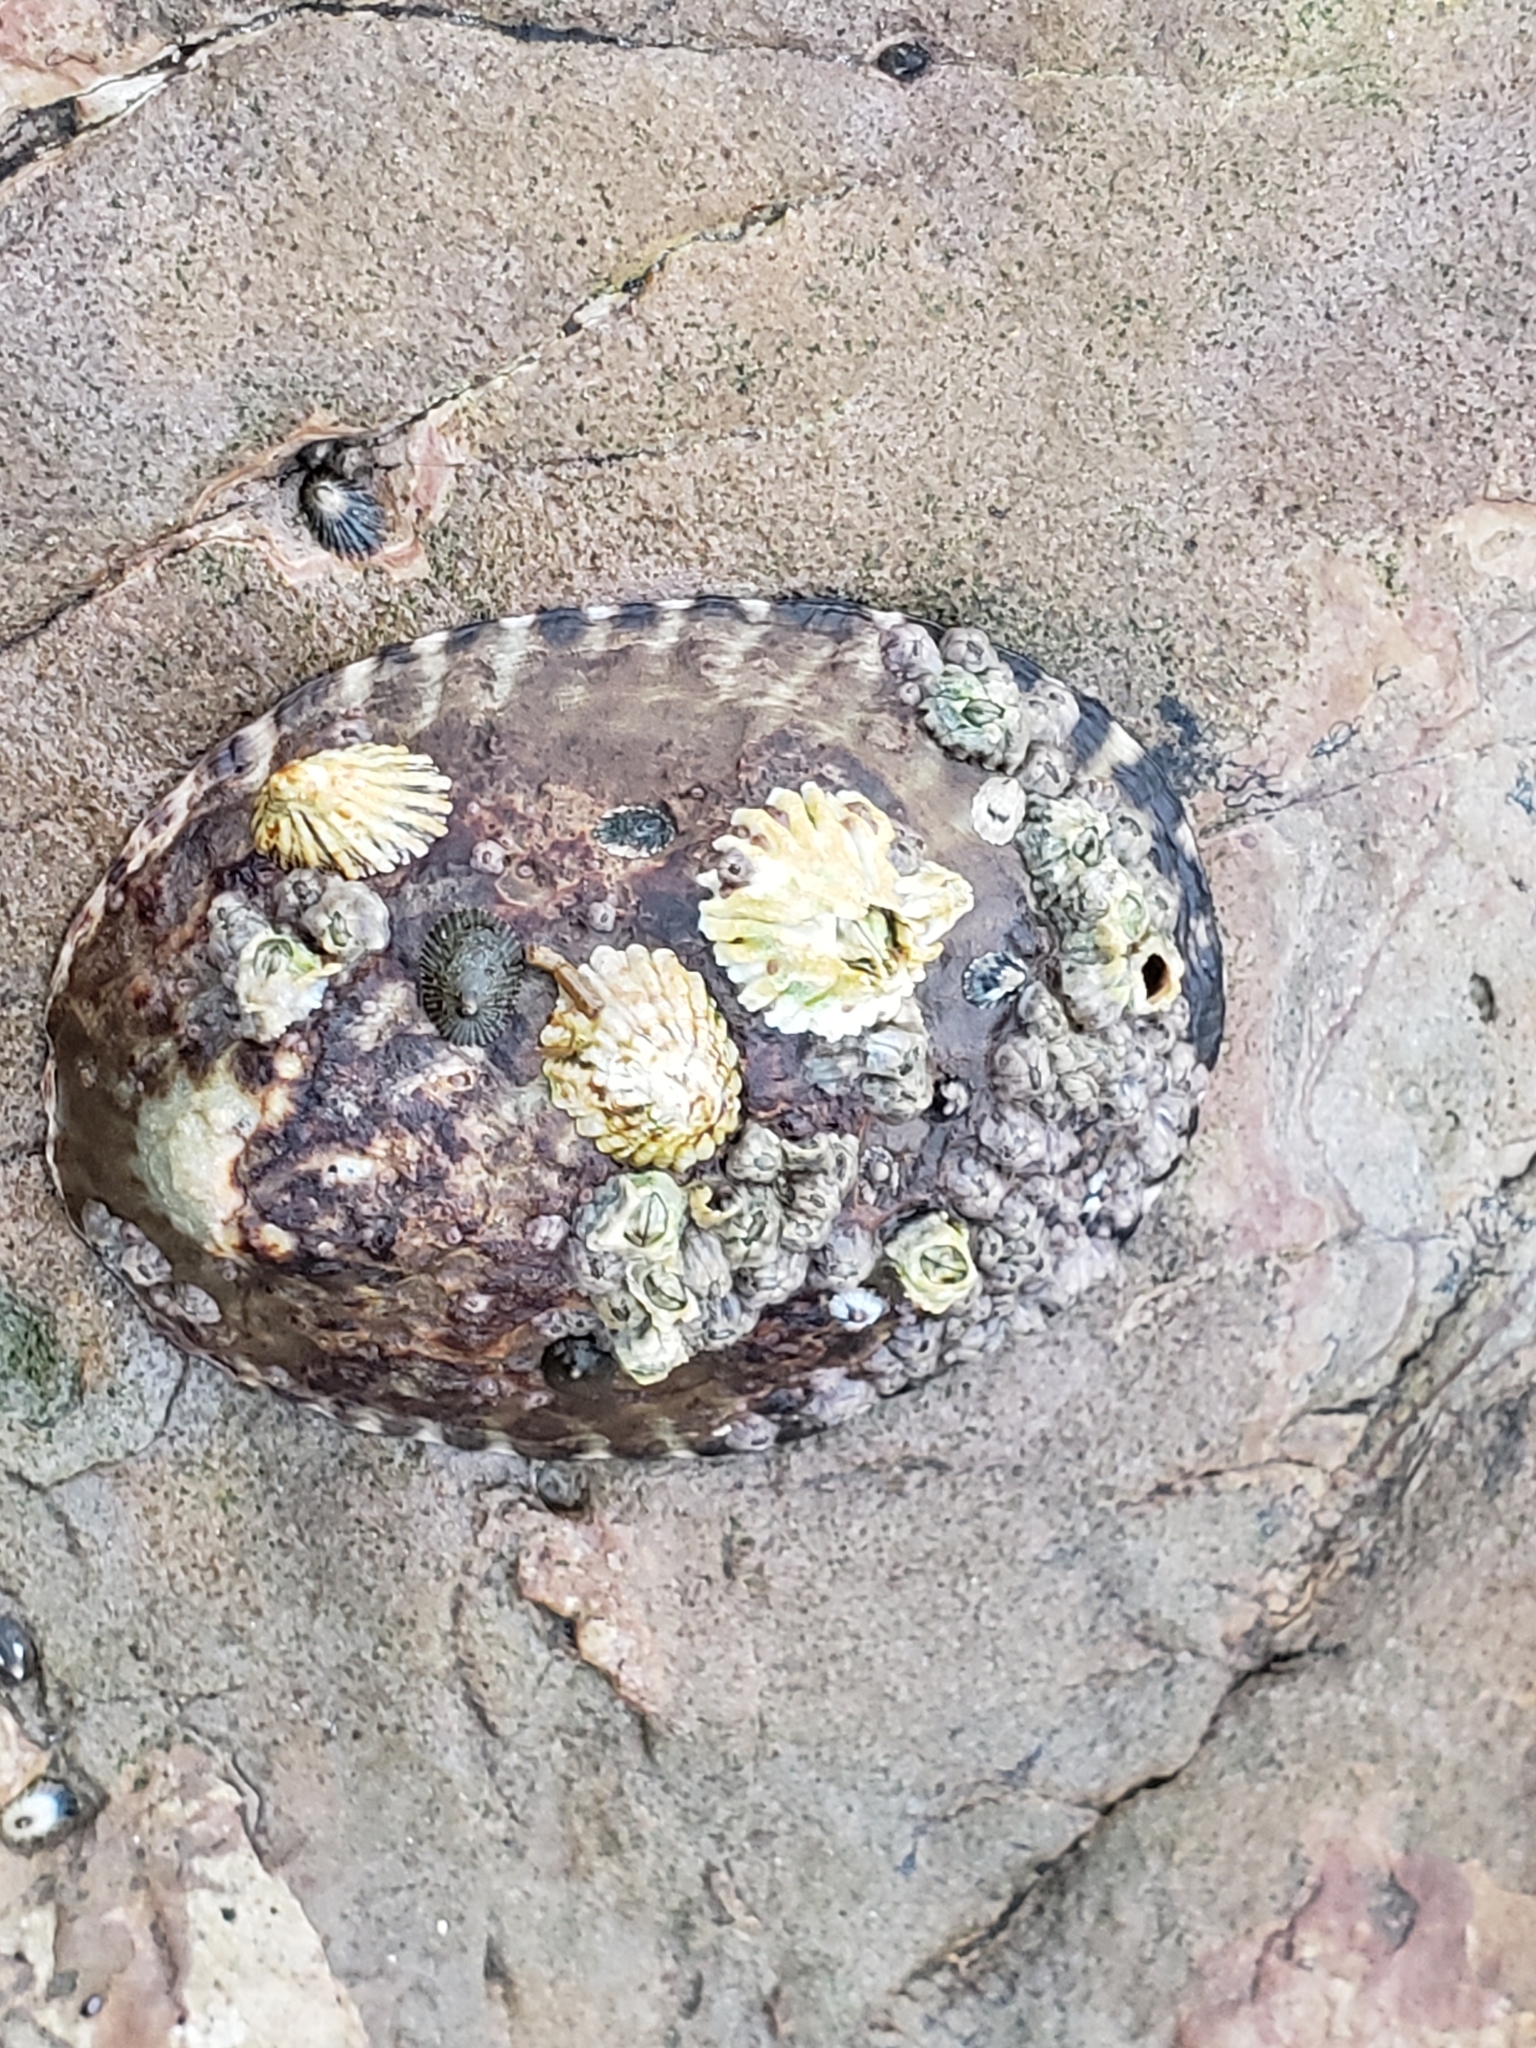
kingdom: Animalia
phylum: Mollusca
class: Gastropoda
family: Lottiidae
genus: Lottia
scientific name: Lottia gigantea
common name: Owl limpet
